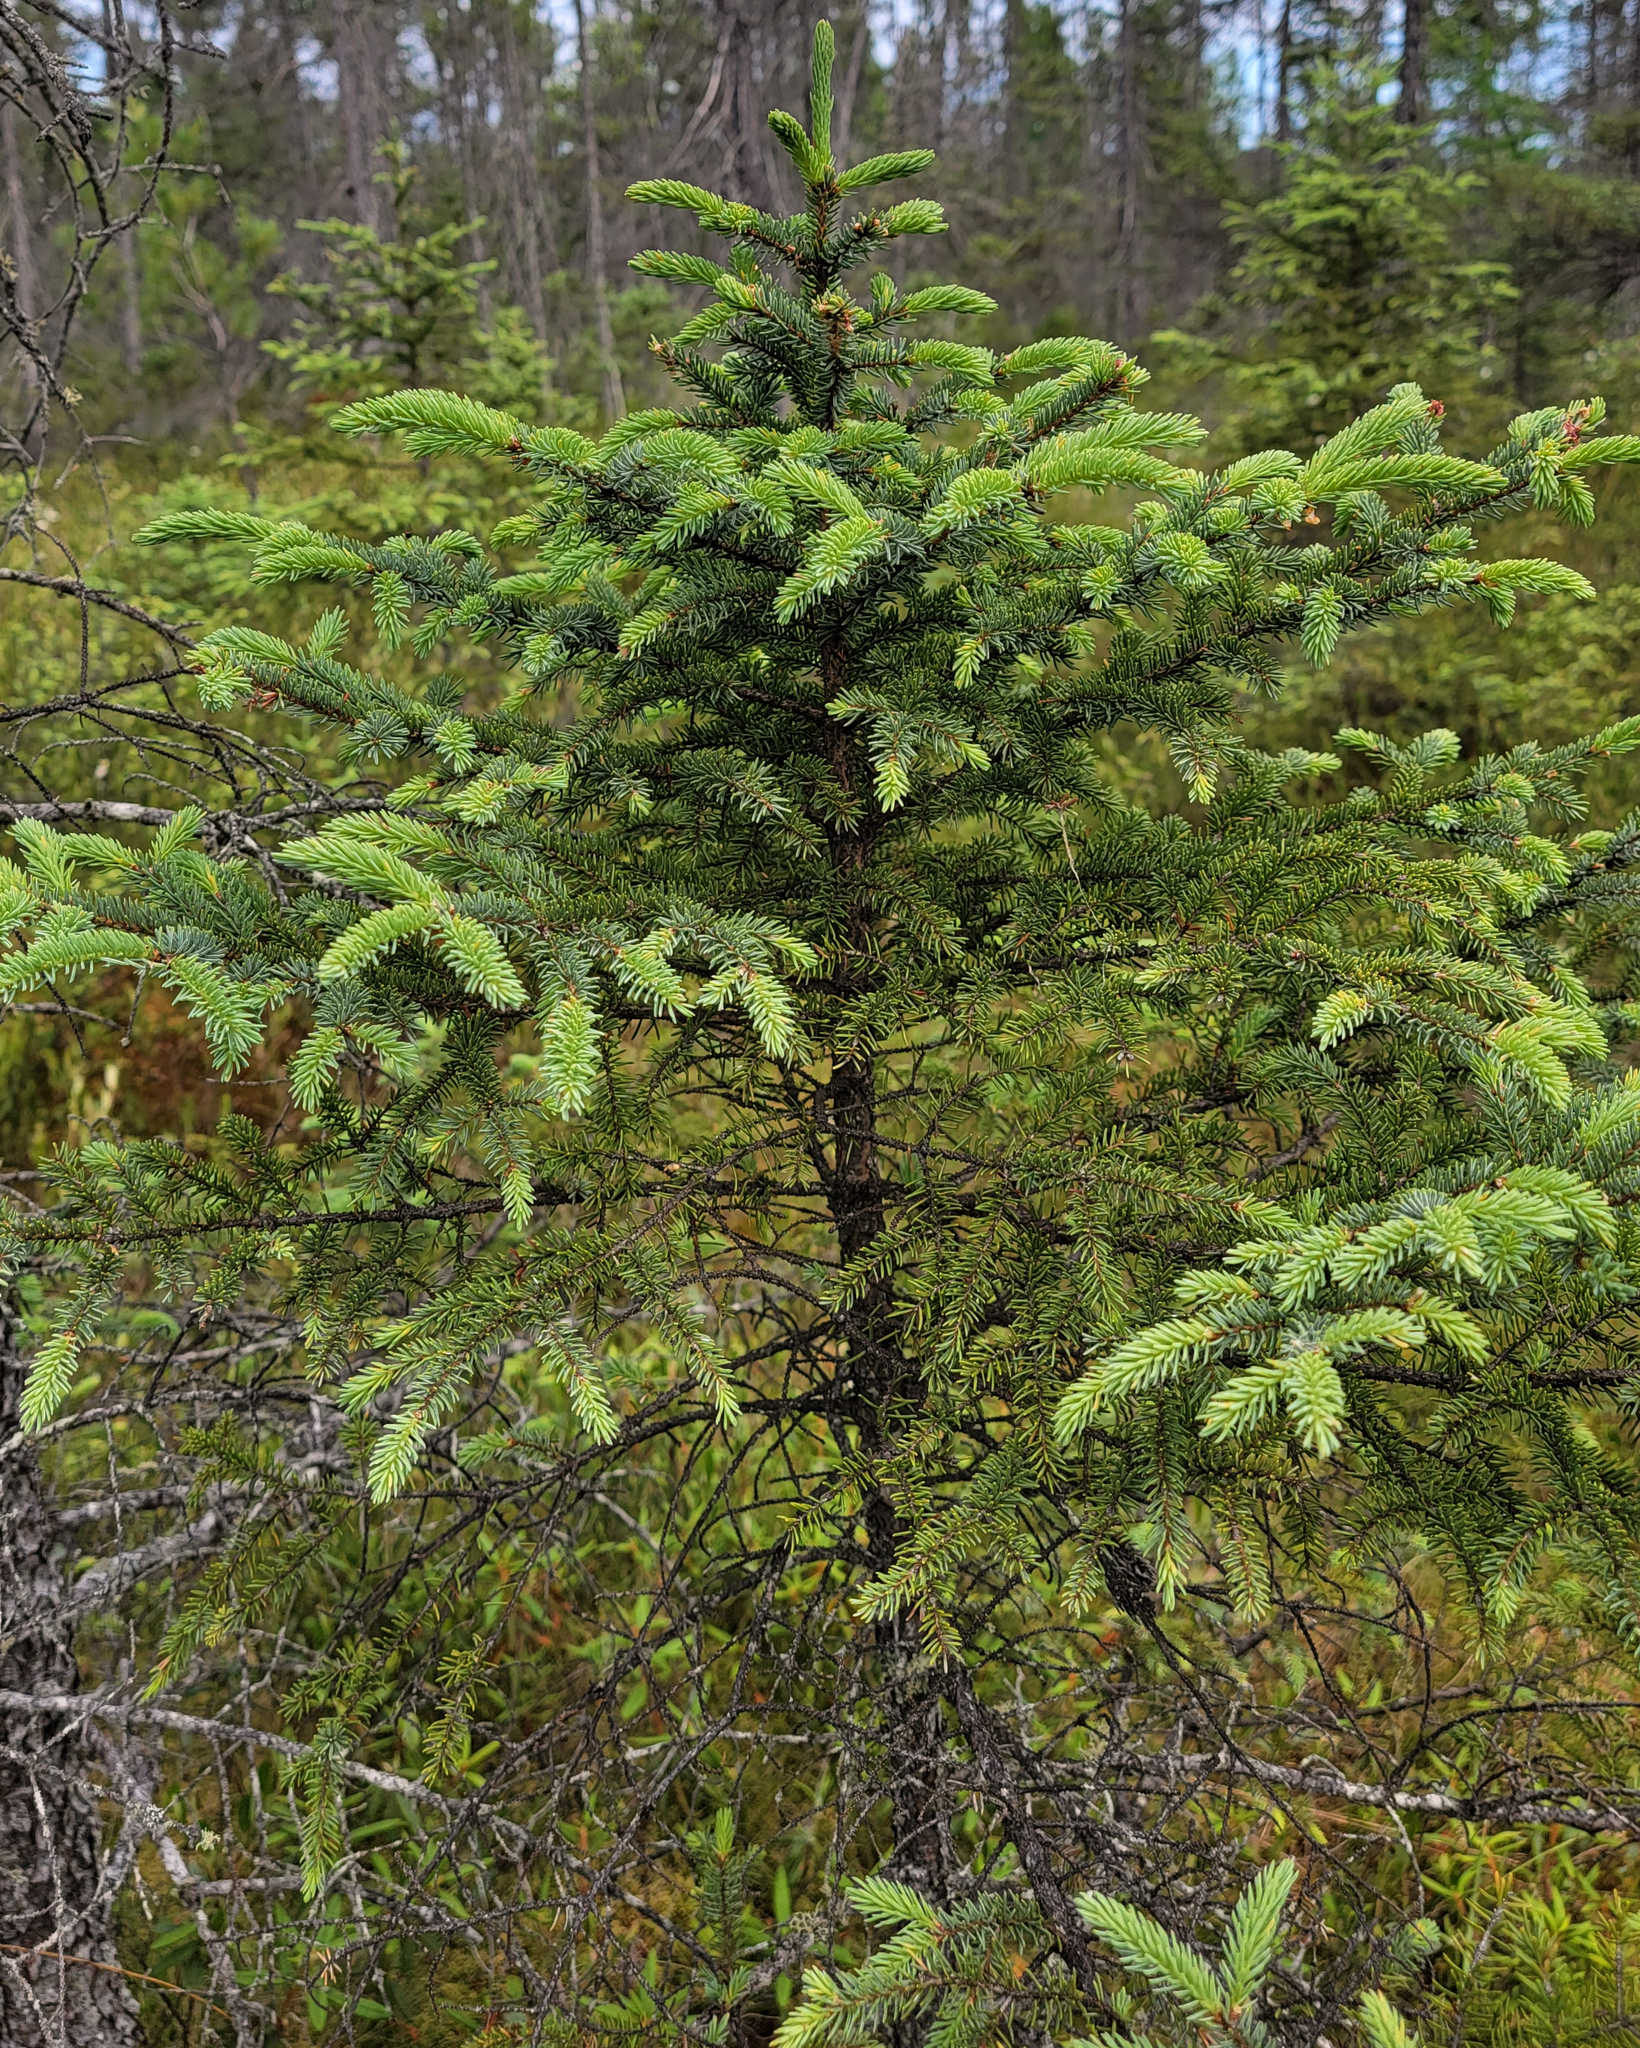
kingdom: Plantae
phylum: Tracheophyta
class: Pinopsida
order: Pinales
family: Pinaceae
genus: Picea
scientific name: Picea mariana
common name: Black spruce
